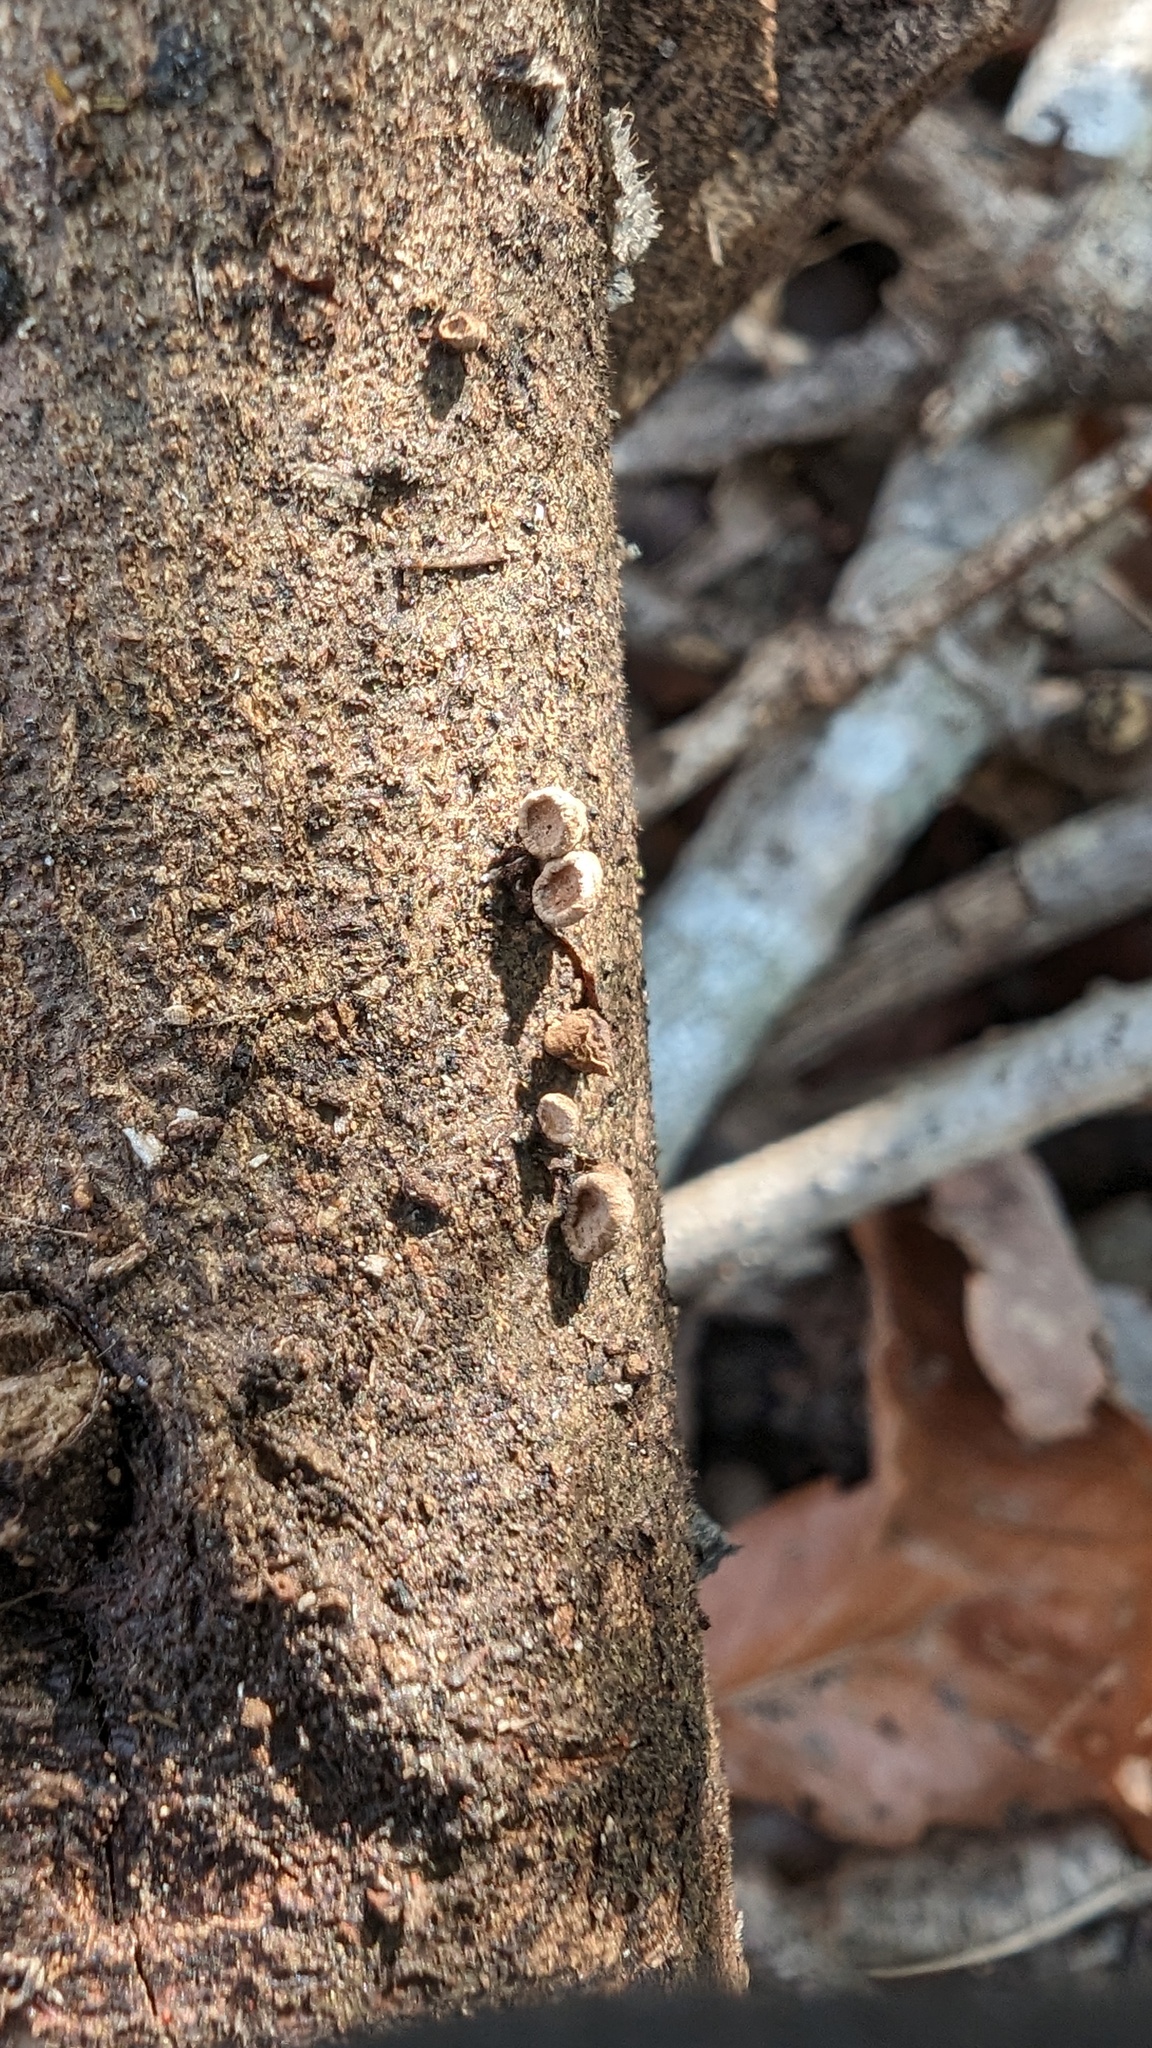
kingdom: Fungi
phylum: Basidiomycota
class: Agaricomycetes
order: Agaricales
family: Schizophyllaceae
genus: Porodisculus
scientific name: Porodisculus pendulus
